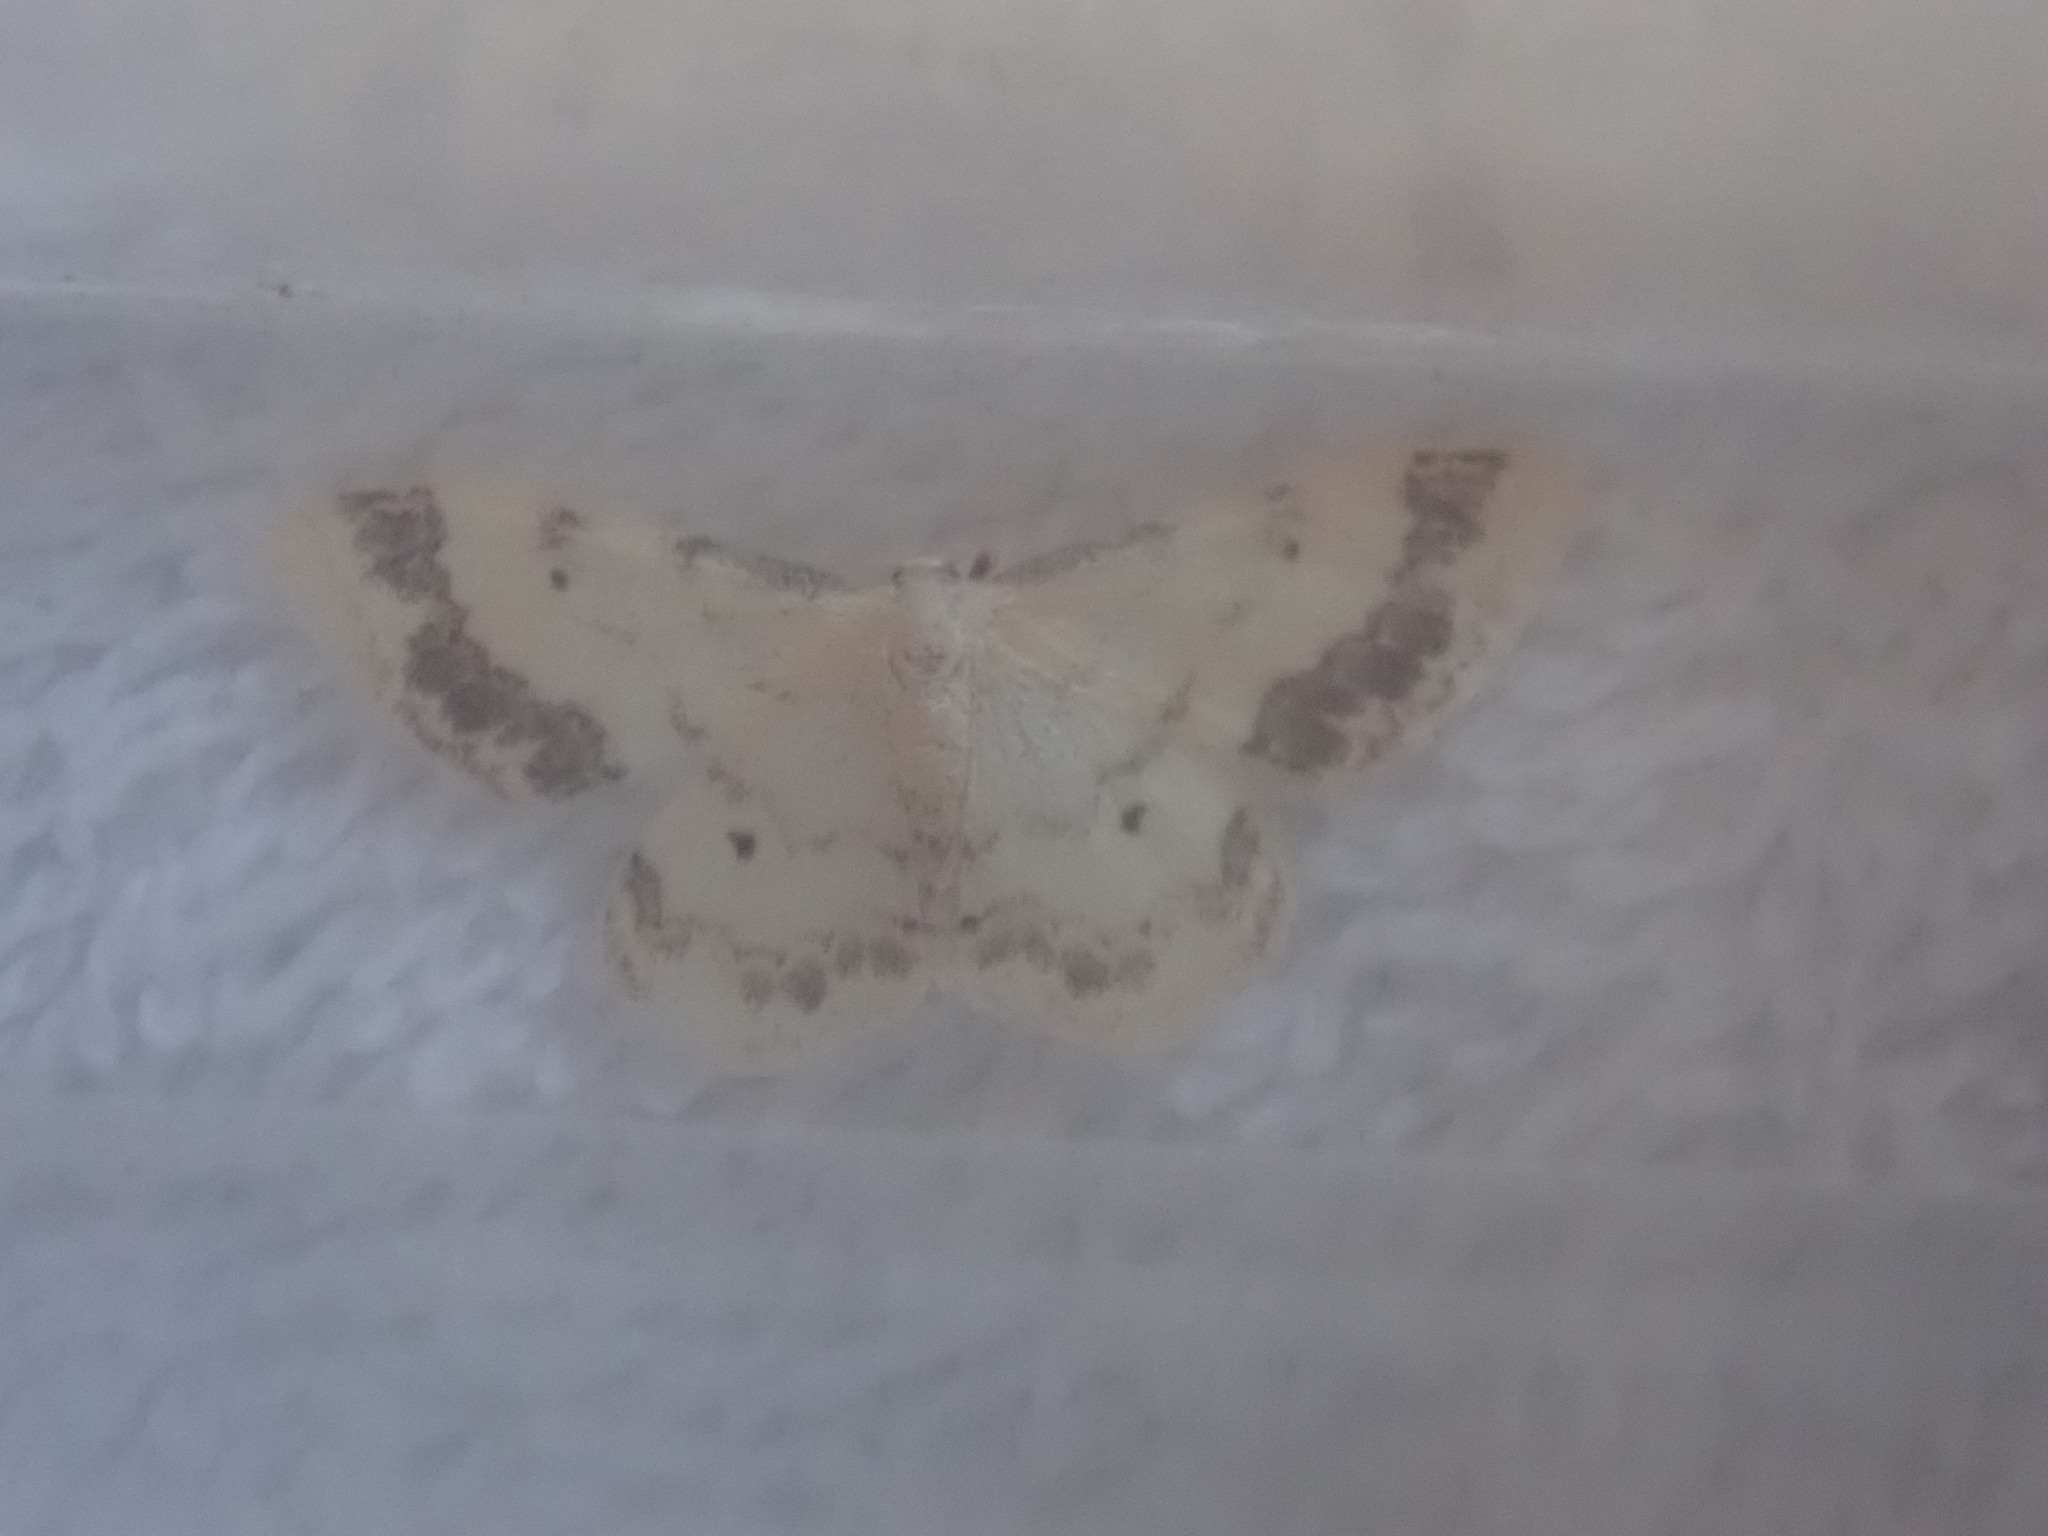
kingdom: Animalia
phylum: Arthropoda
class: Insecta
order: Lepidoptera
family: Geometridae
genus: Idaea
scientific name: Idaea trigeminata
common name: Treble brown spot
